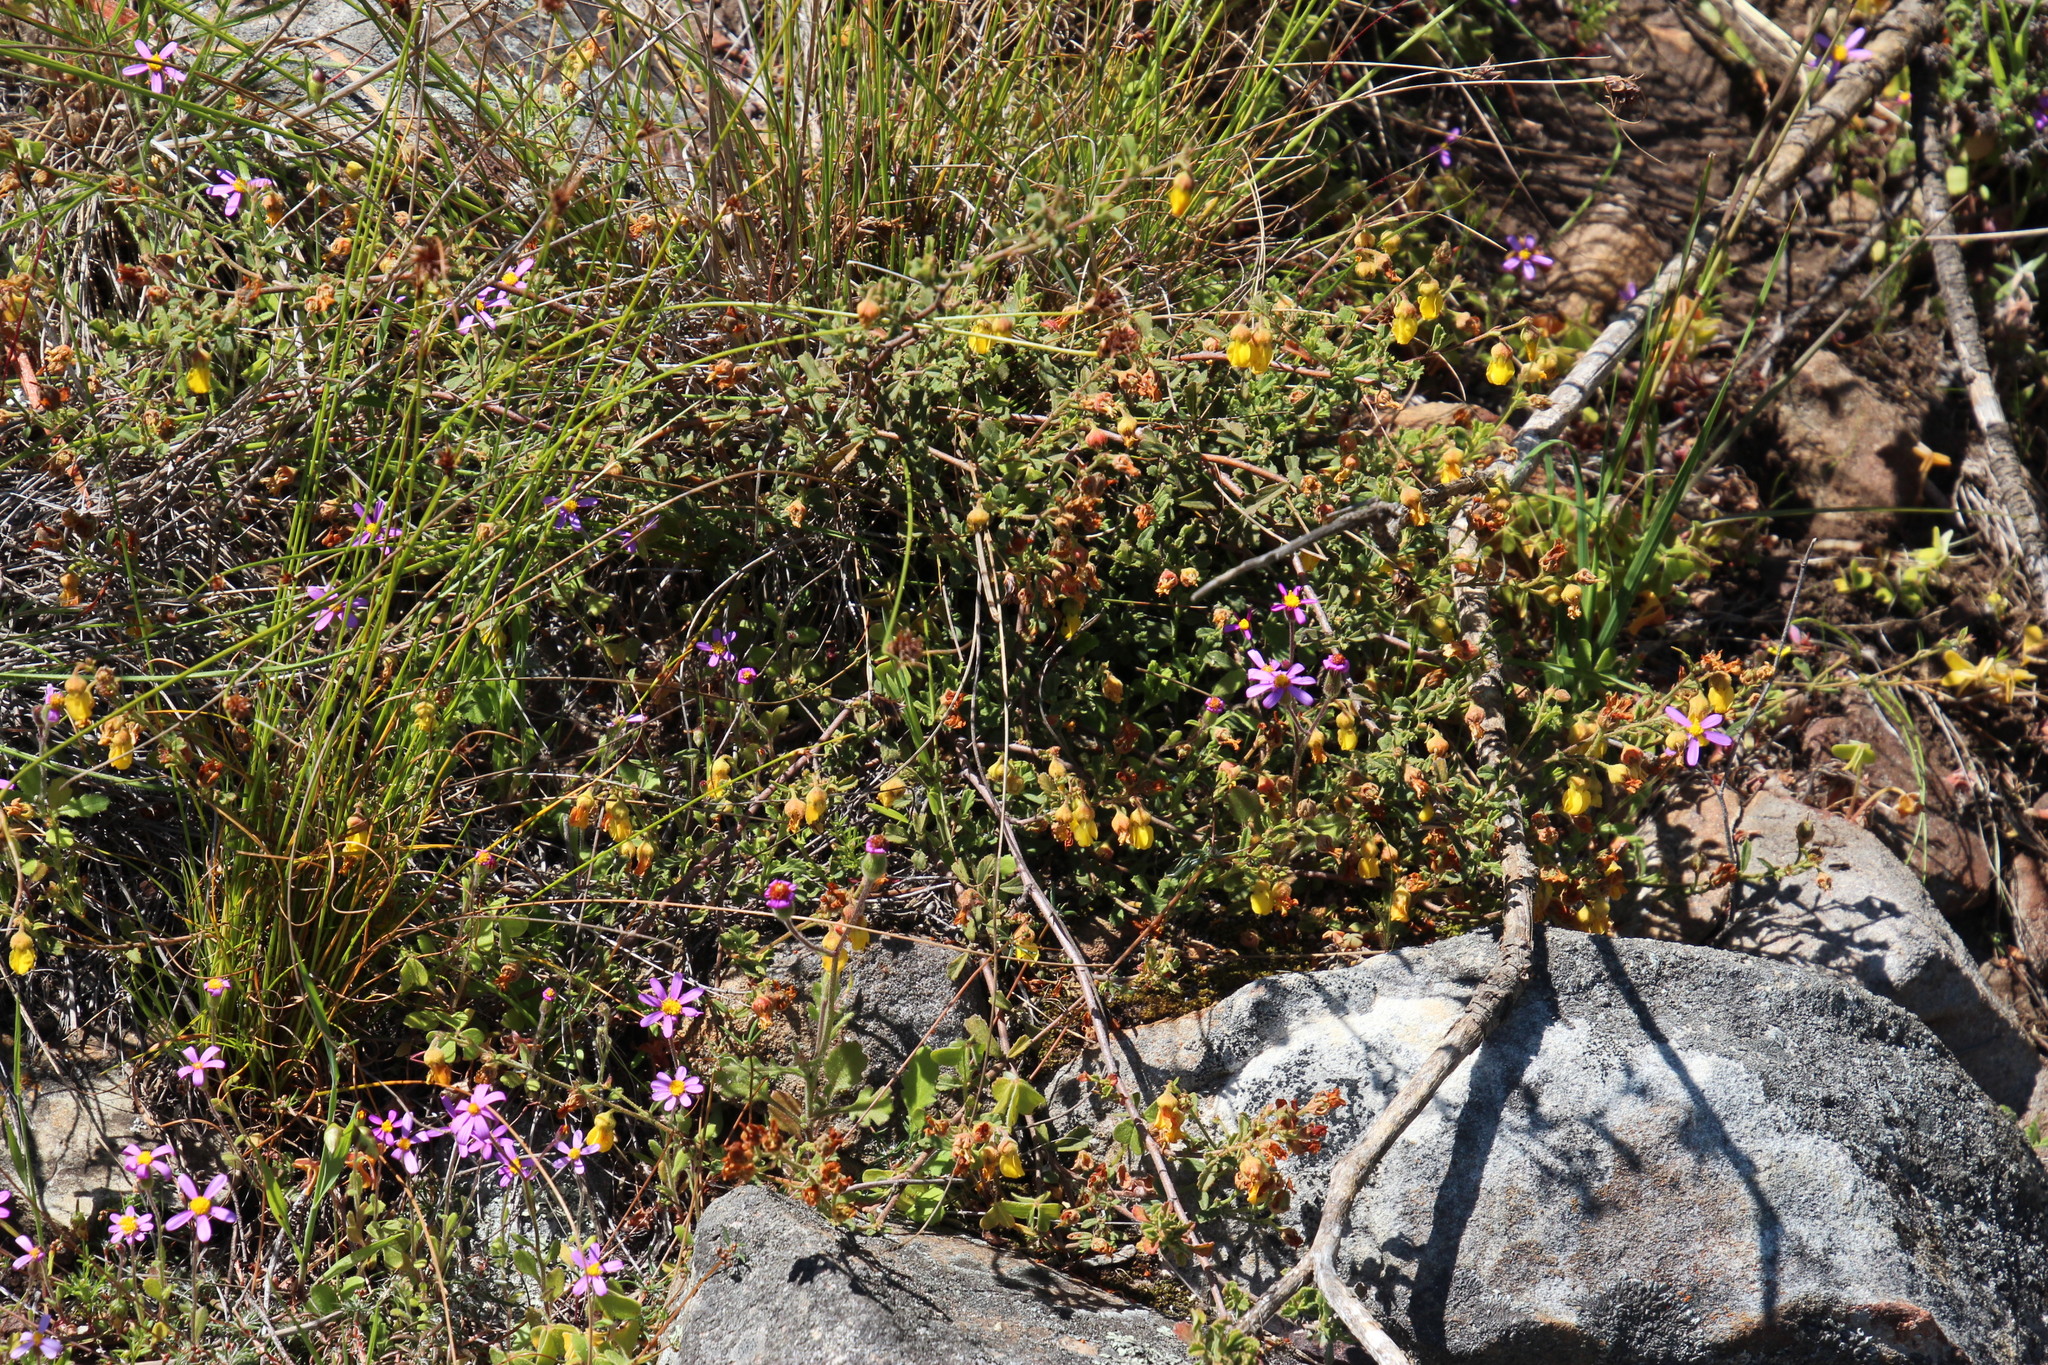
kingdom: Plantae
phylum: Tracheophyta
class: Magnoliopsida
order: Malvales
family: Malvaceae
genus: Hermannia
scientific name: Hermannia multiflora
